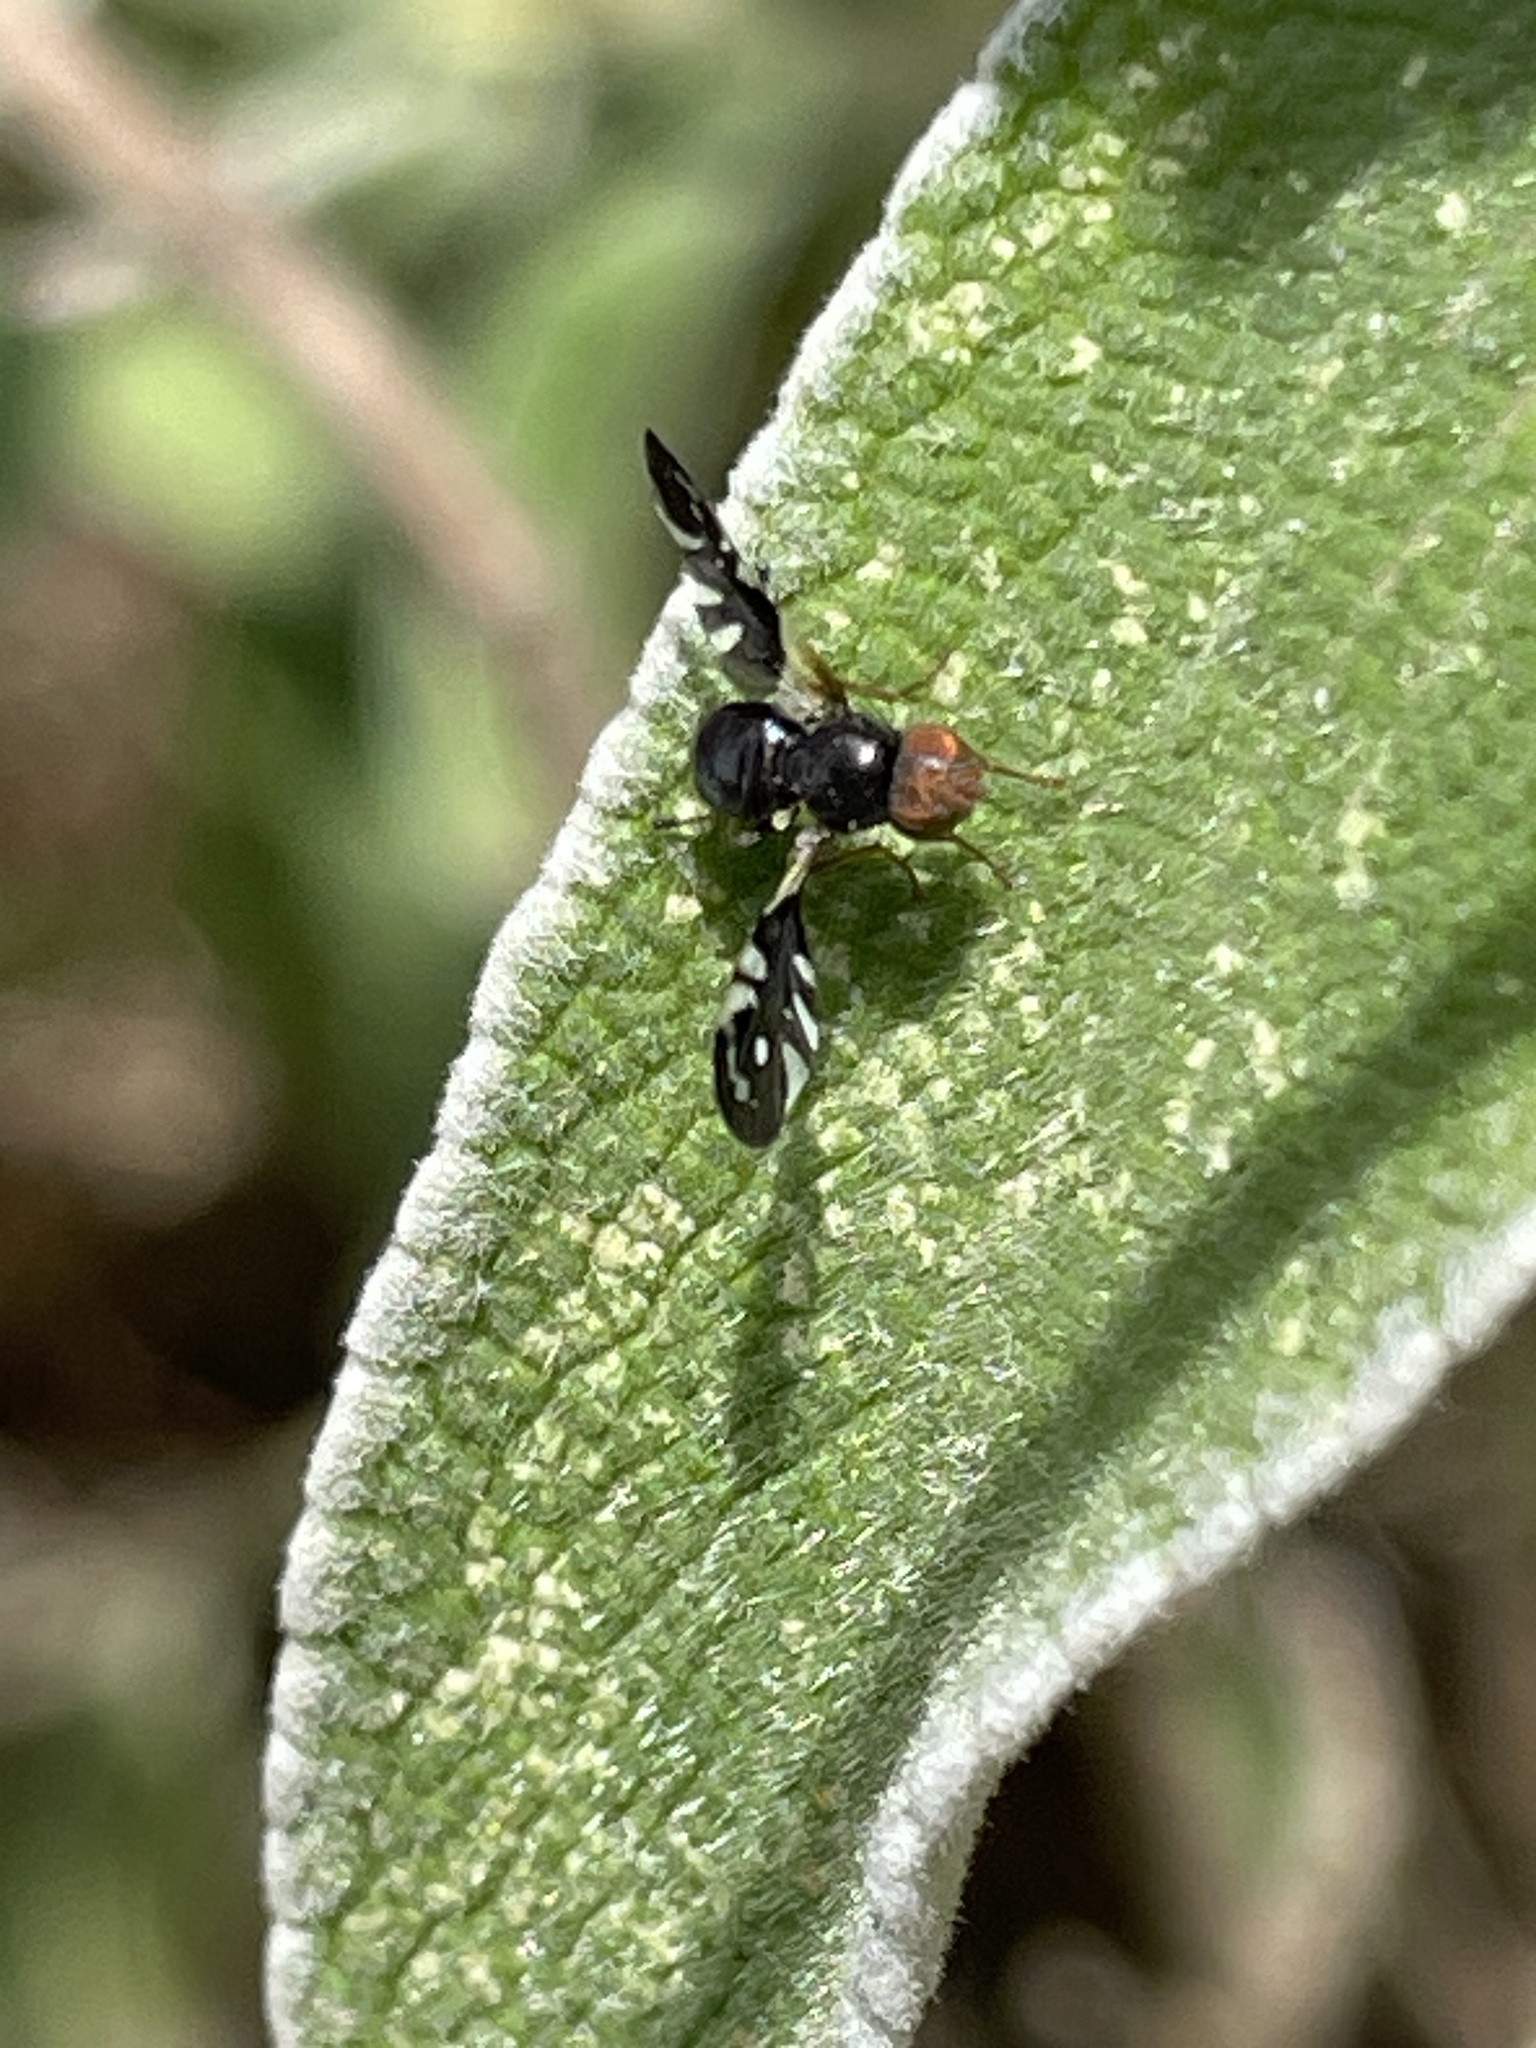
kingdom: Animalia
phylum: Arthropoda
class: Insecta
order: Diptera
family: Tephritidae
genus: Aciura
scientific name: Aciura coryli
